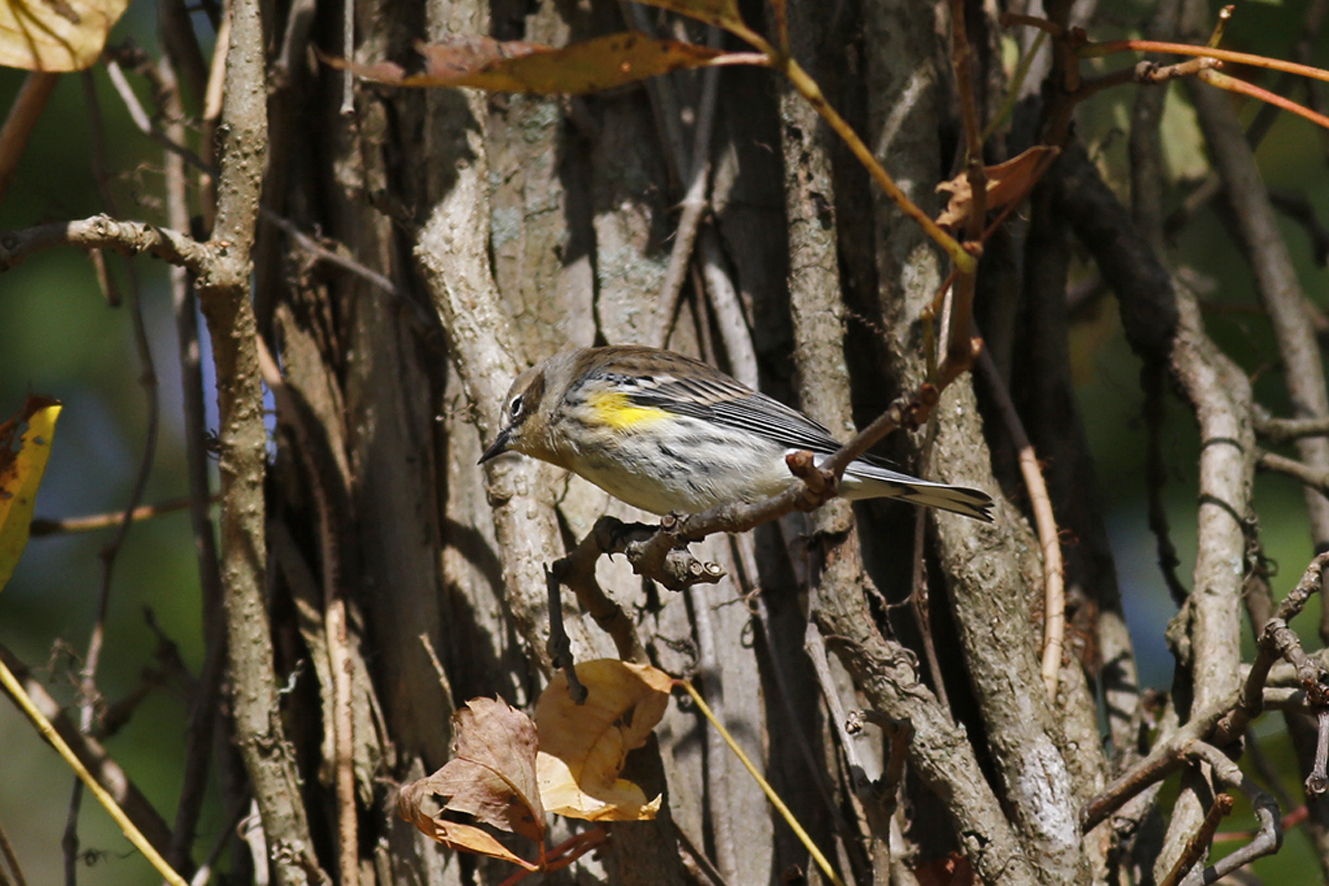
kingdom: Animalia
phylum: Chordata
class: Aves
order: Passeriformes
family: Parulidae
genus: Setophaga
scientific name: Setophaga coronata
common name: Myrtle warbler
